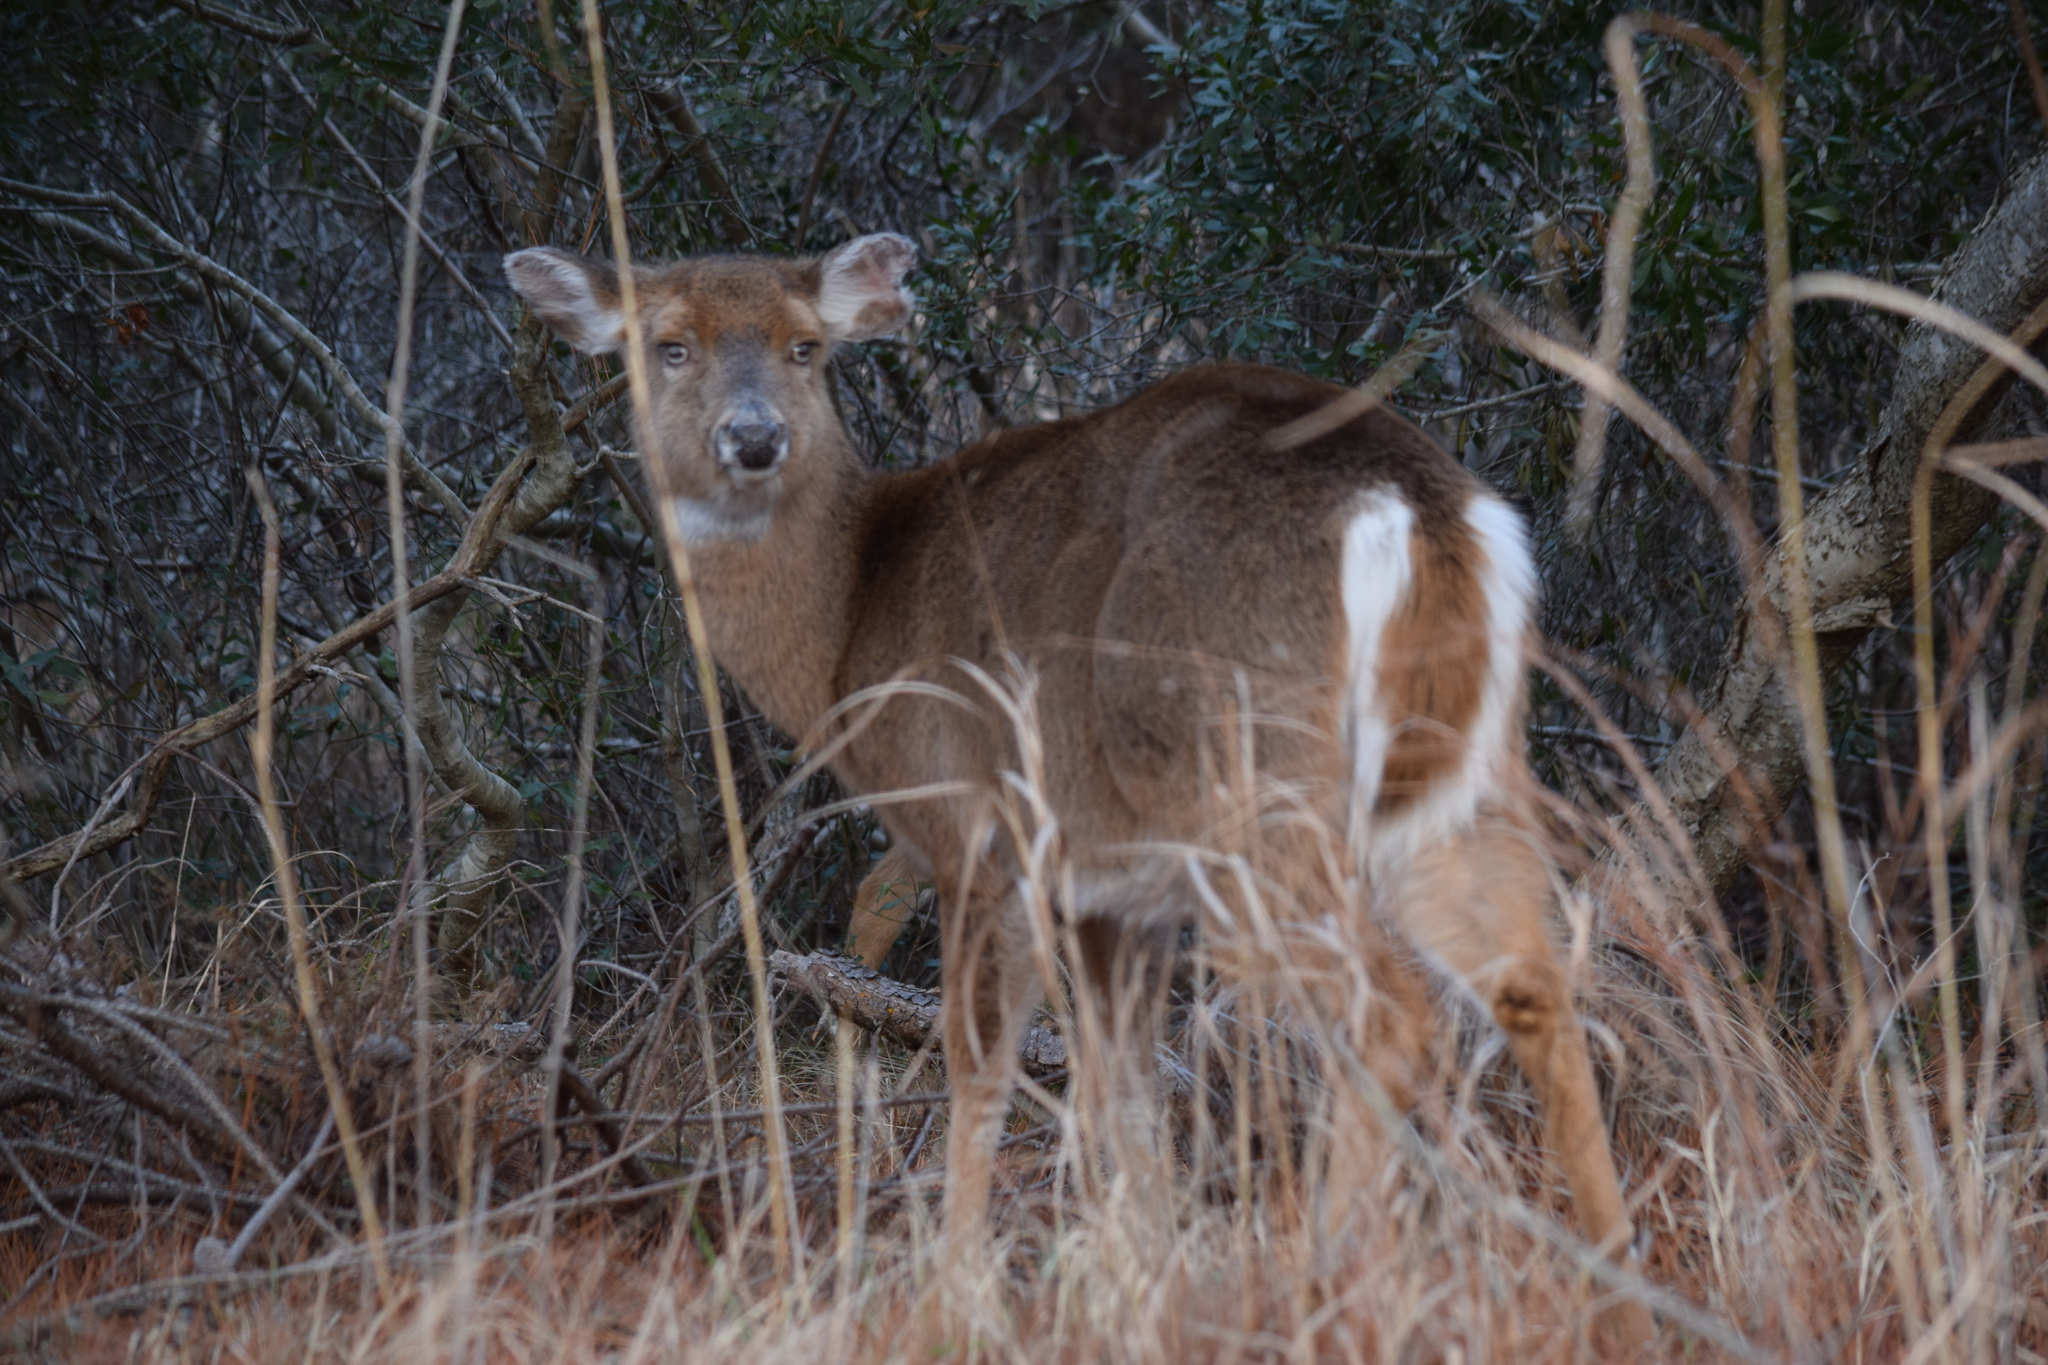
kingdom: Animalia
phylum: Chordata
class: Mammalia
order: Artiodactyla
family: Cervidae
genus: Odocoileus
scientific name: Odocoileus virginianus
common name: White-tailed deer
